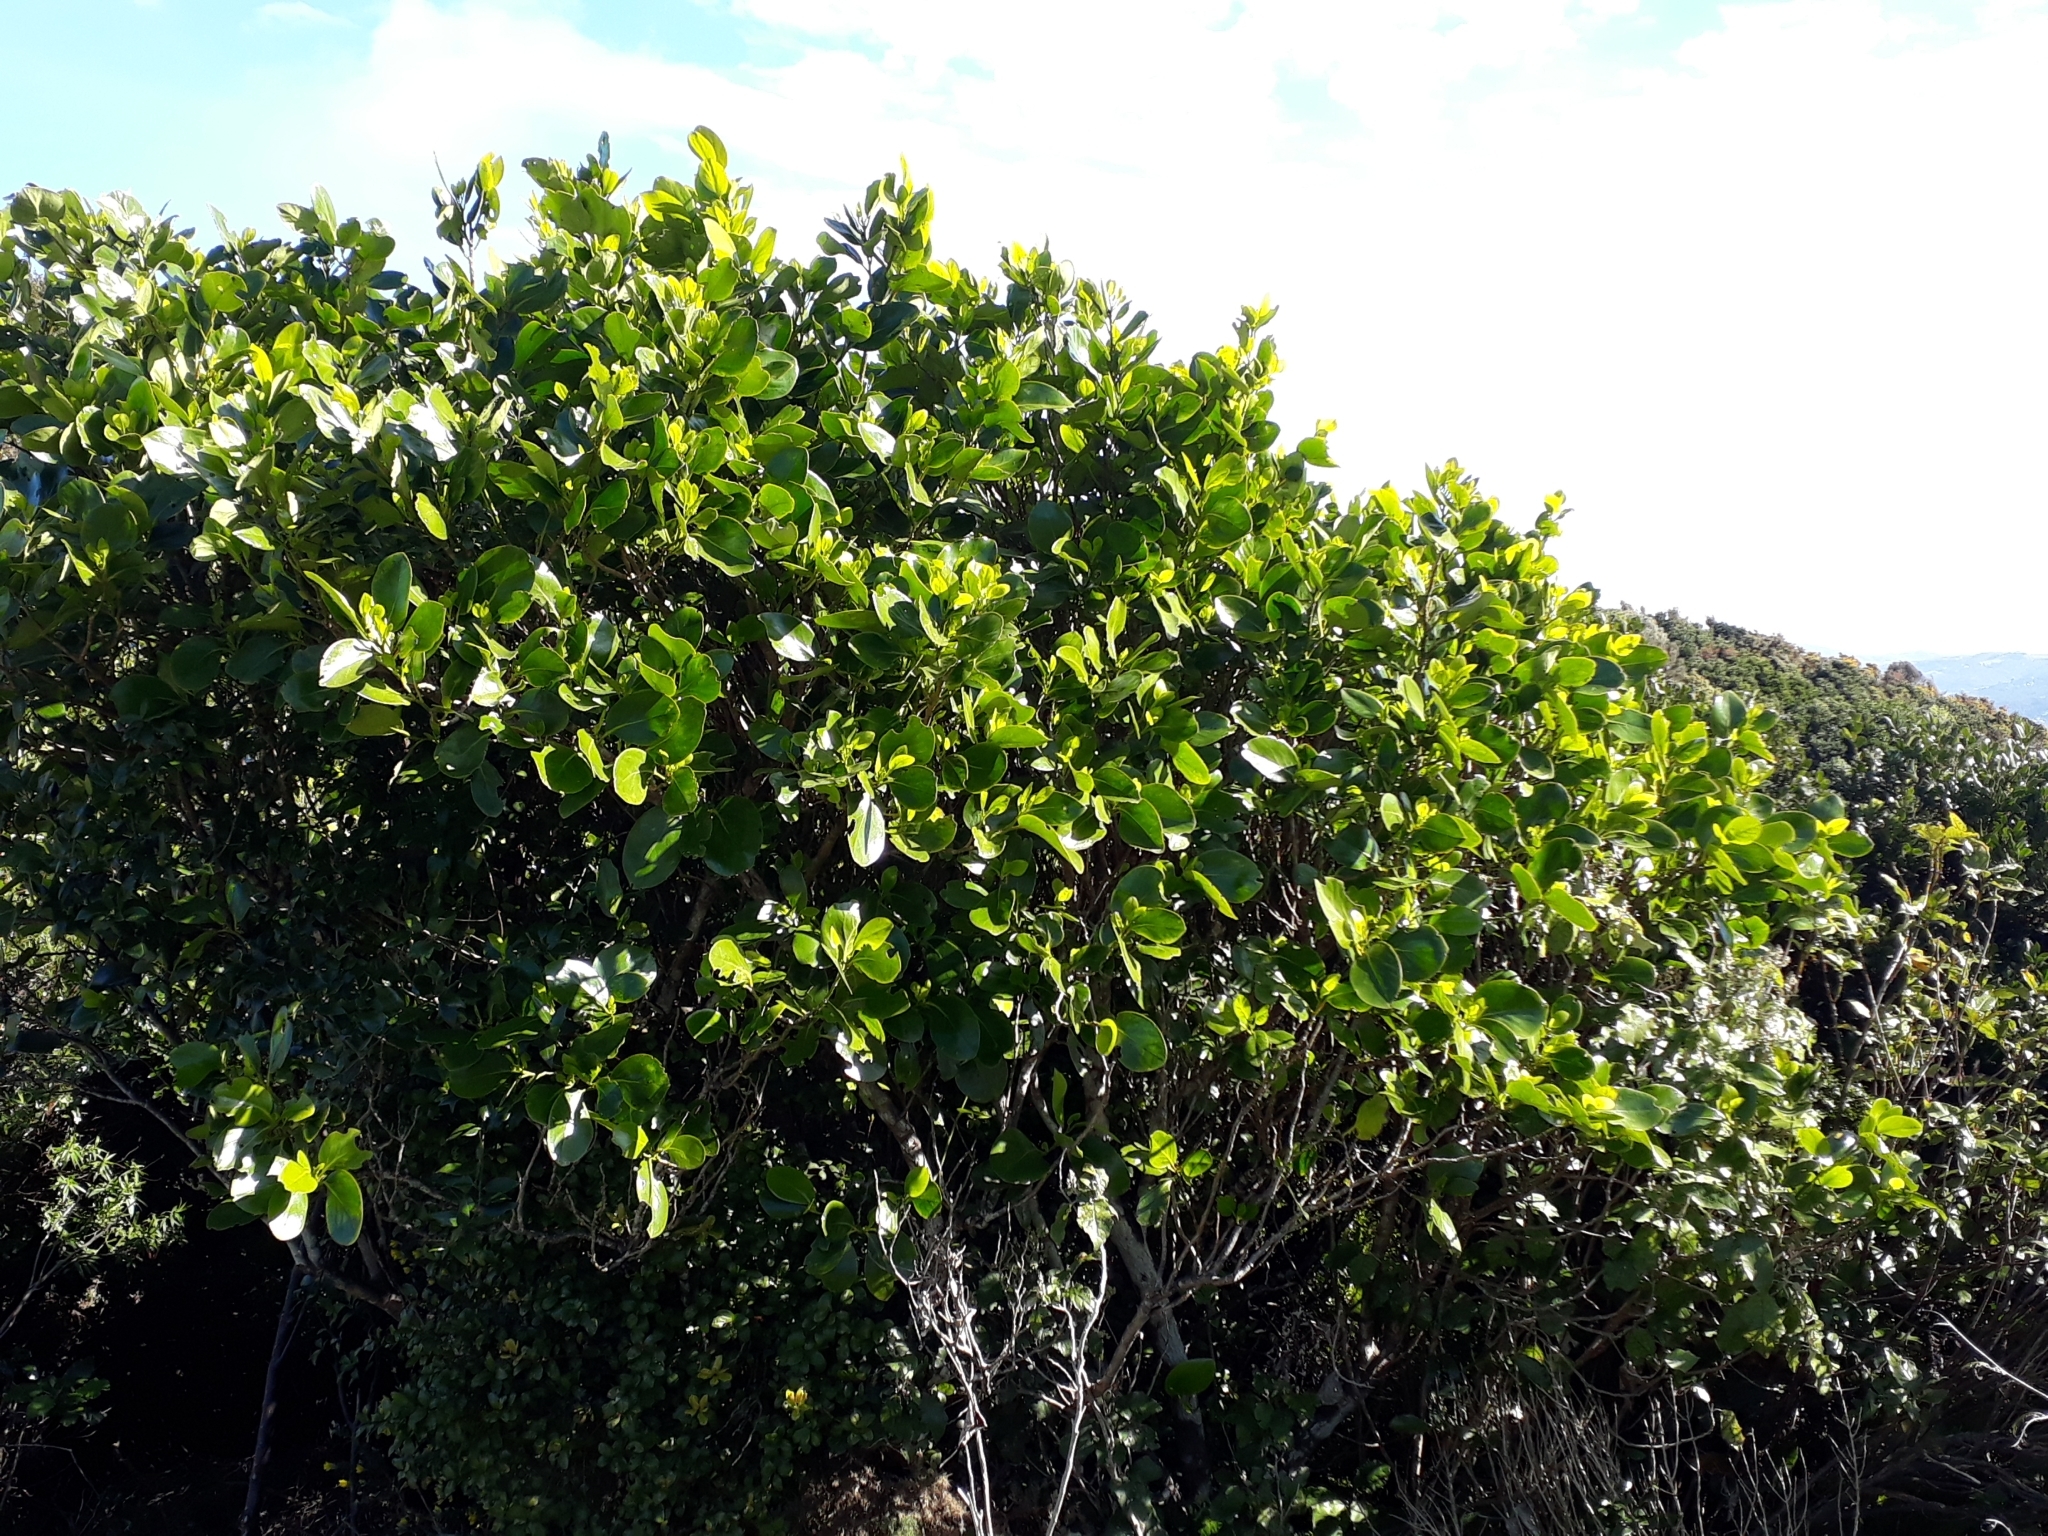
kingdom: Plantae
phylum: Tracheophyta
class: Magnoliopsida
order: Apiales
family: Griseliniaceae
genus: Griselinia
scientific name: Griselinia lucida
